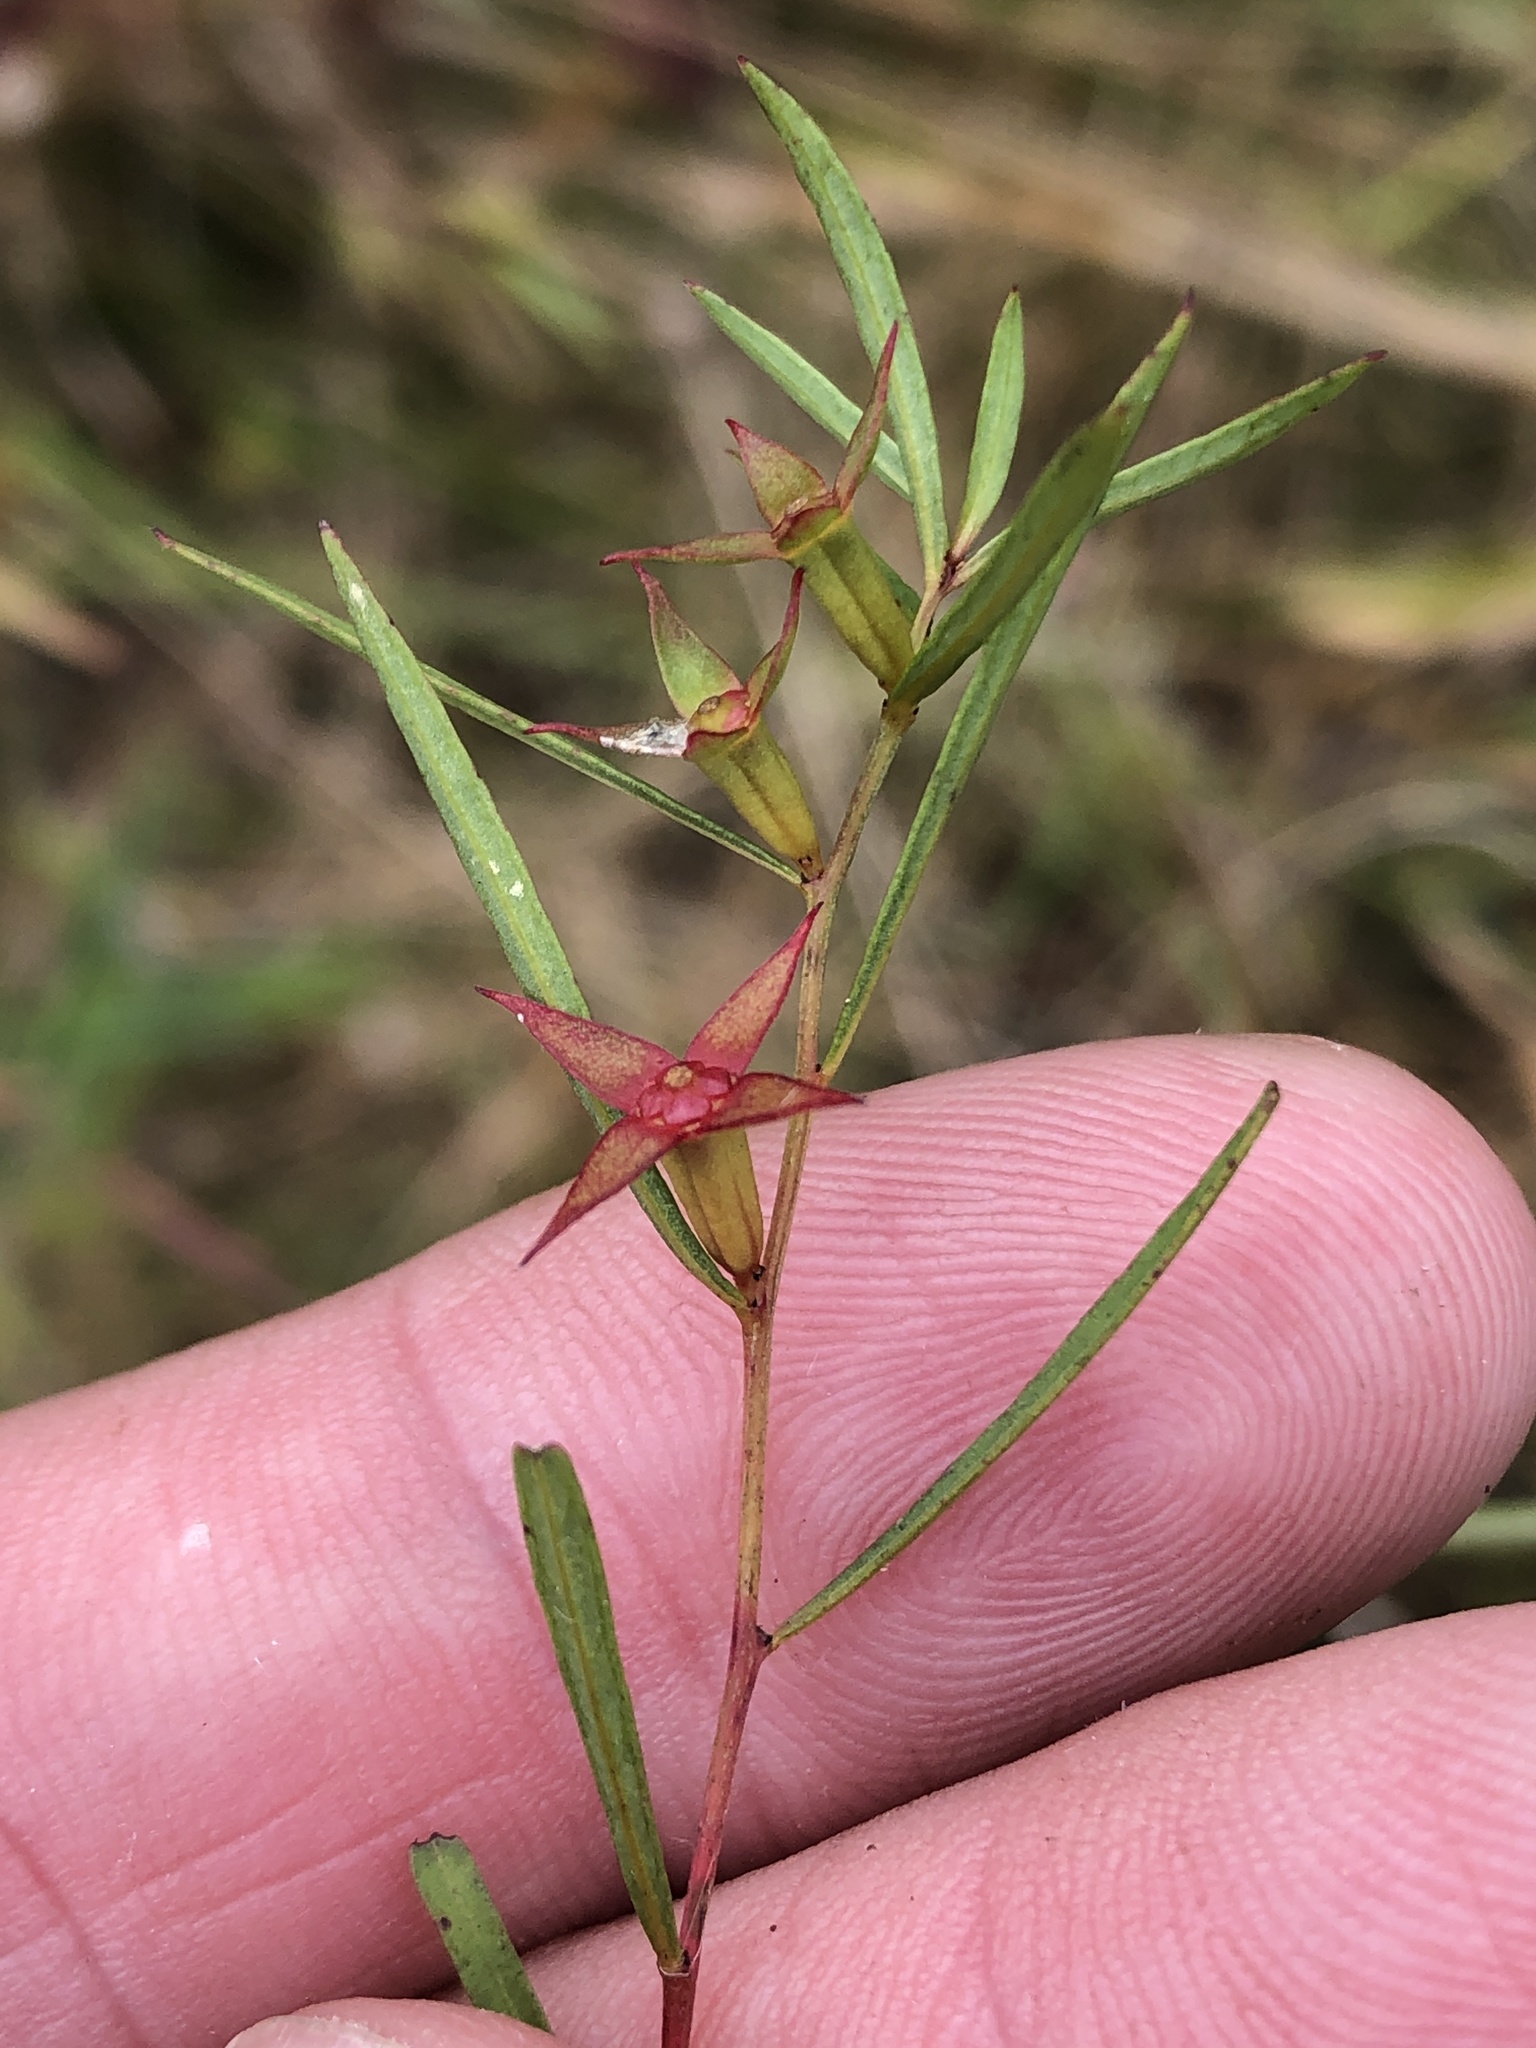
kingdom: Plantae
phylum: Tracheophyta
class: Magnoliopsida
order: Myrtales
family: Onagraceae
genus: Ludwigia
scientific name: Ludwigia linearis
